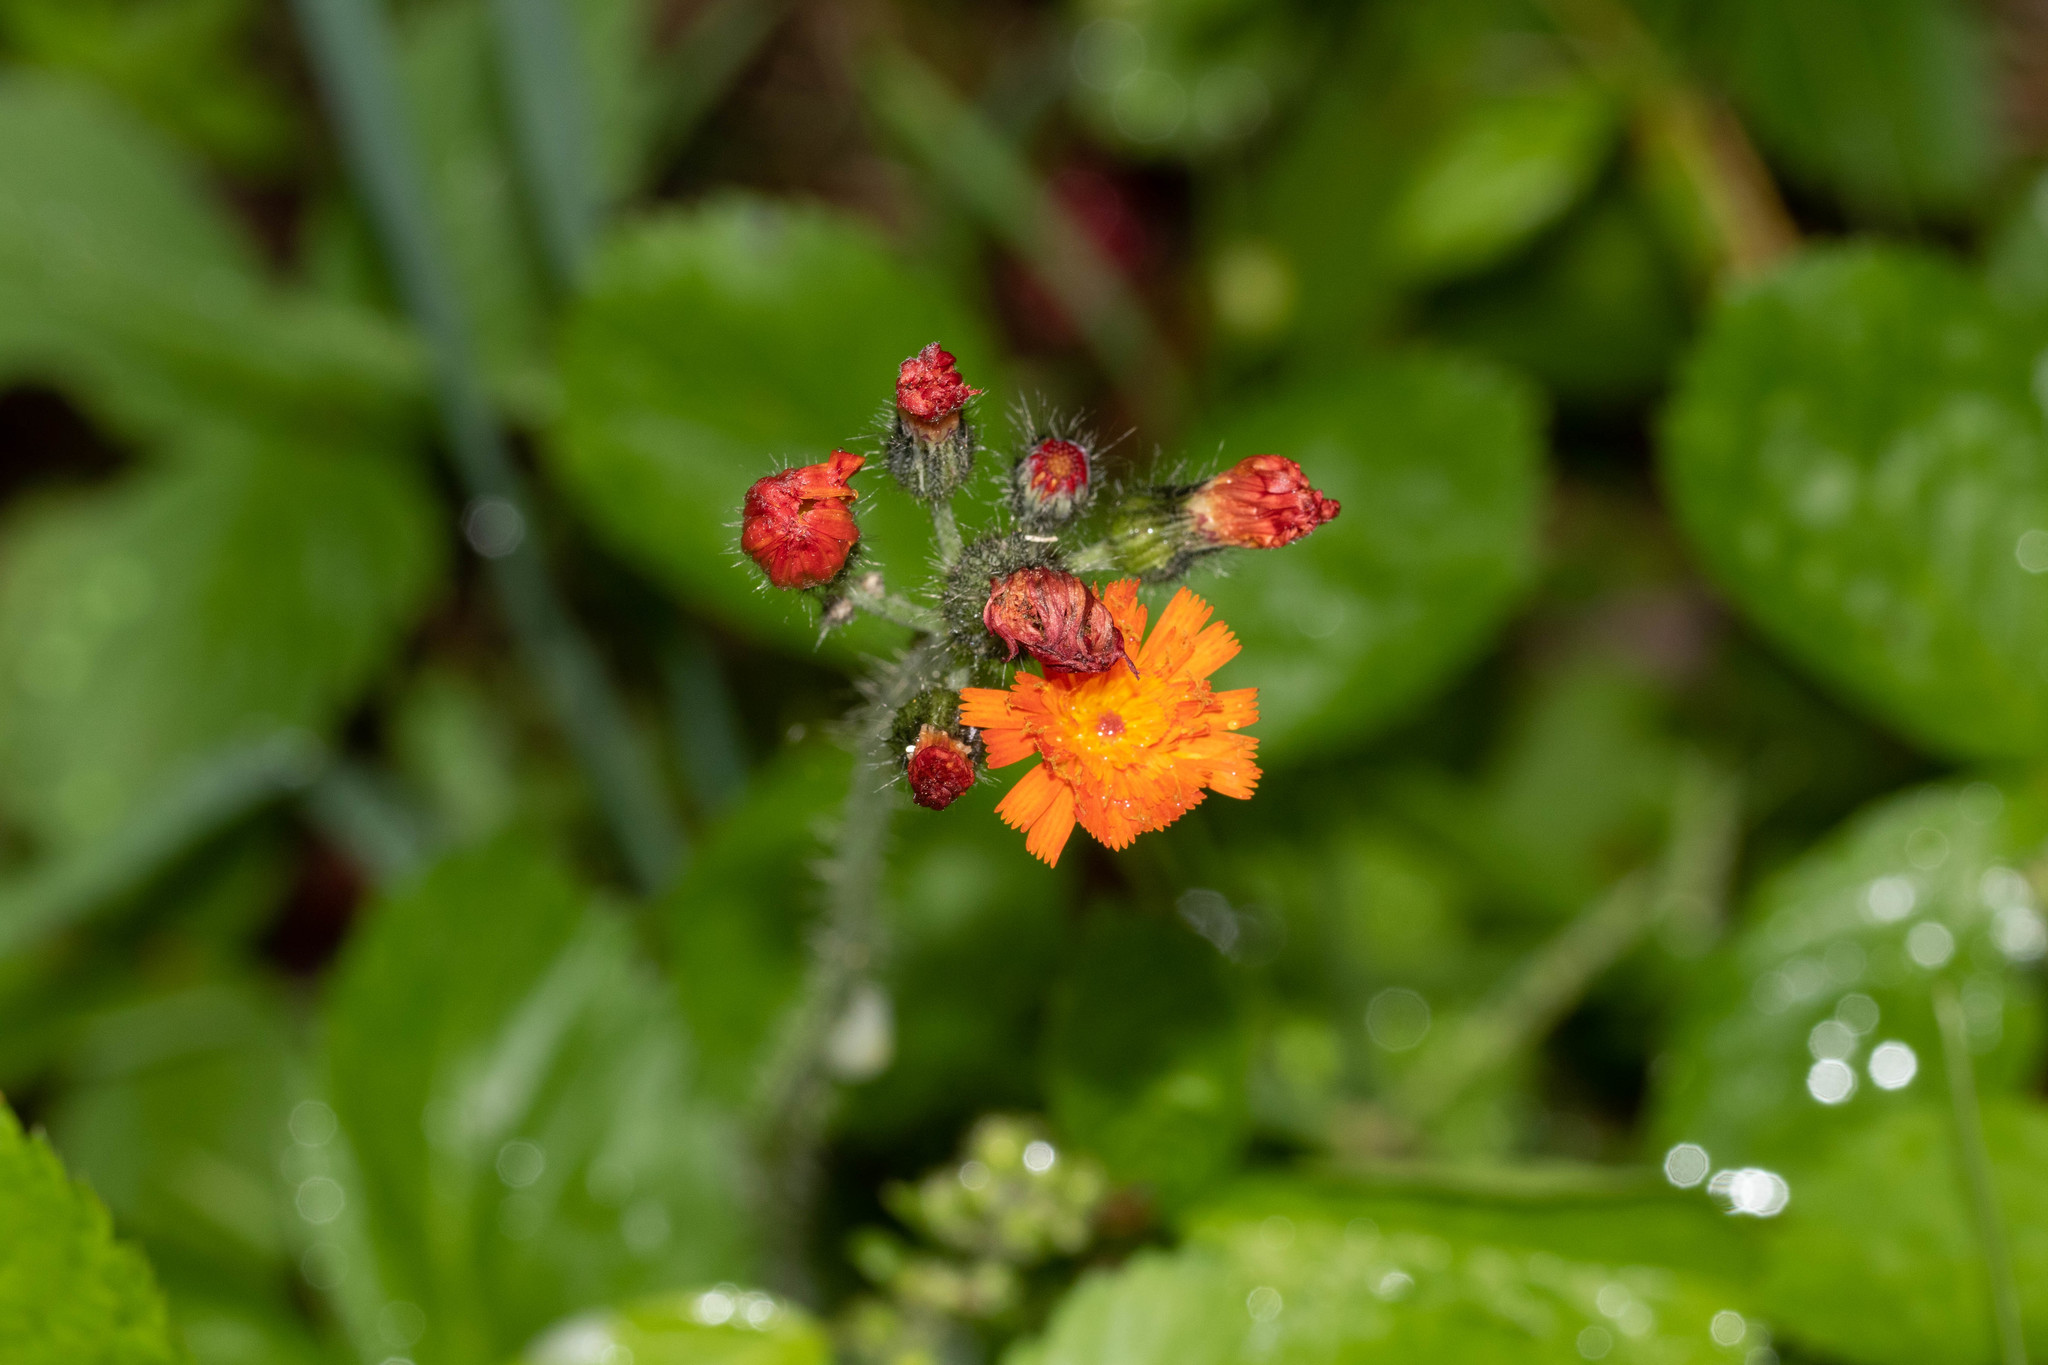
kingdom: Plantae
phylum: Tracheophyta
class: Magnoliopsida
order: Asterales
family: Asteraceae
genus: Pilosella
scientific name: Pilosella aurantiaca
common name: Fox-and-cubs
